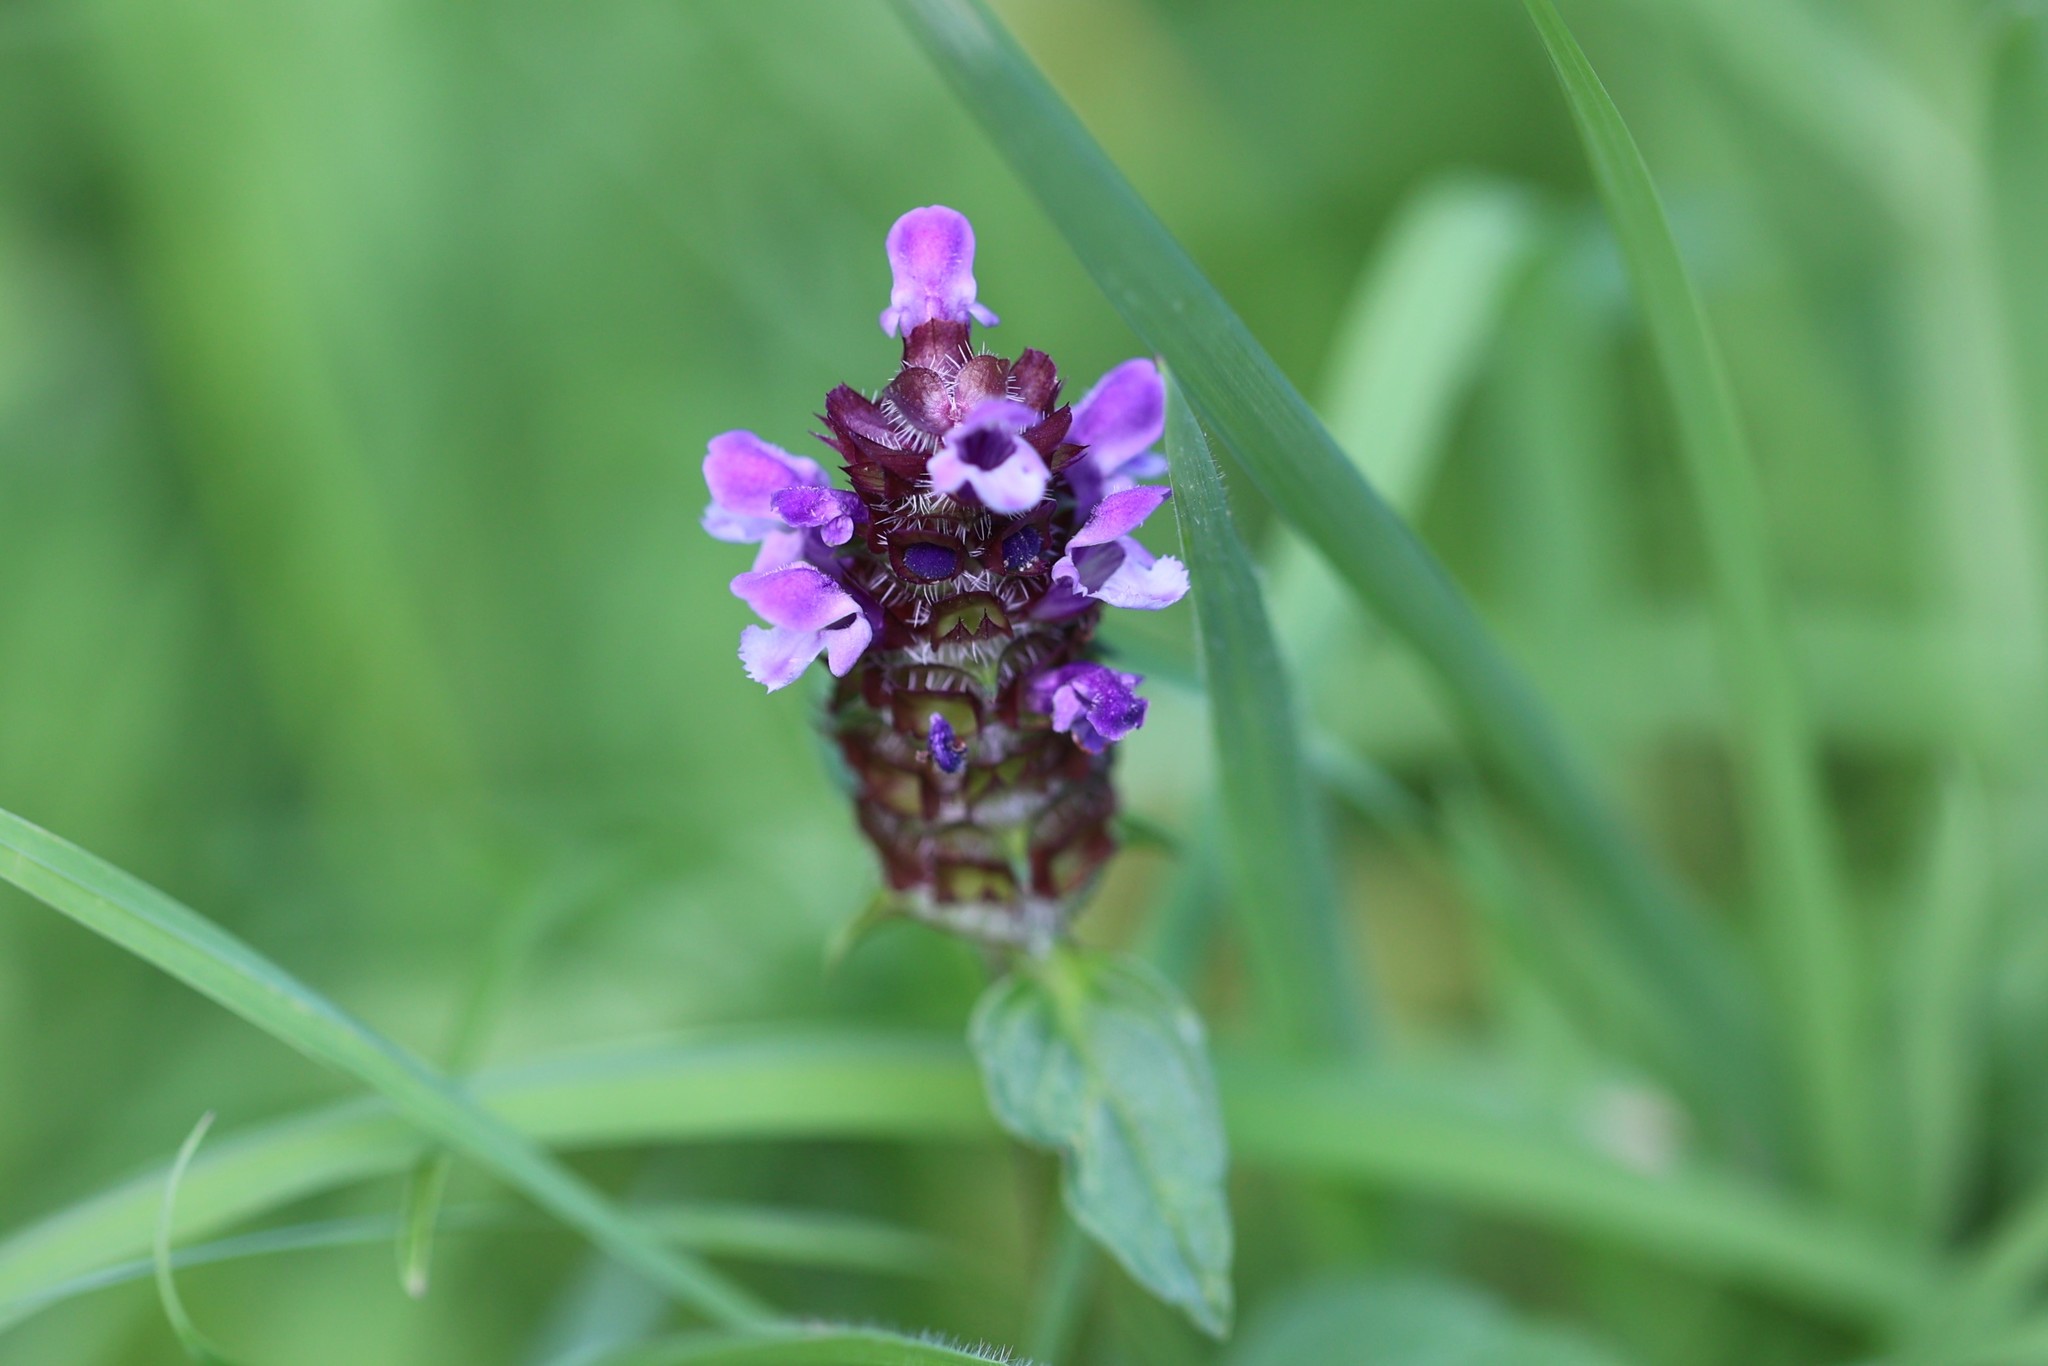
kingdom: Plantae
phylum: Tracheophyta
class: Magnoliopsida
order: Lamiales
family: Lamiaceae
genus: Prunella
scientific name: Prunella vulgaris
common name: Heal-all
